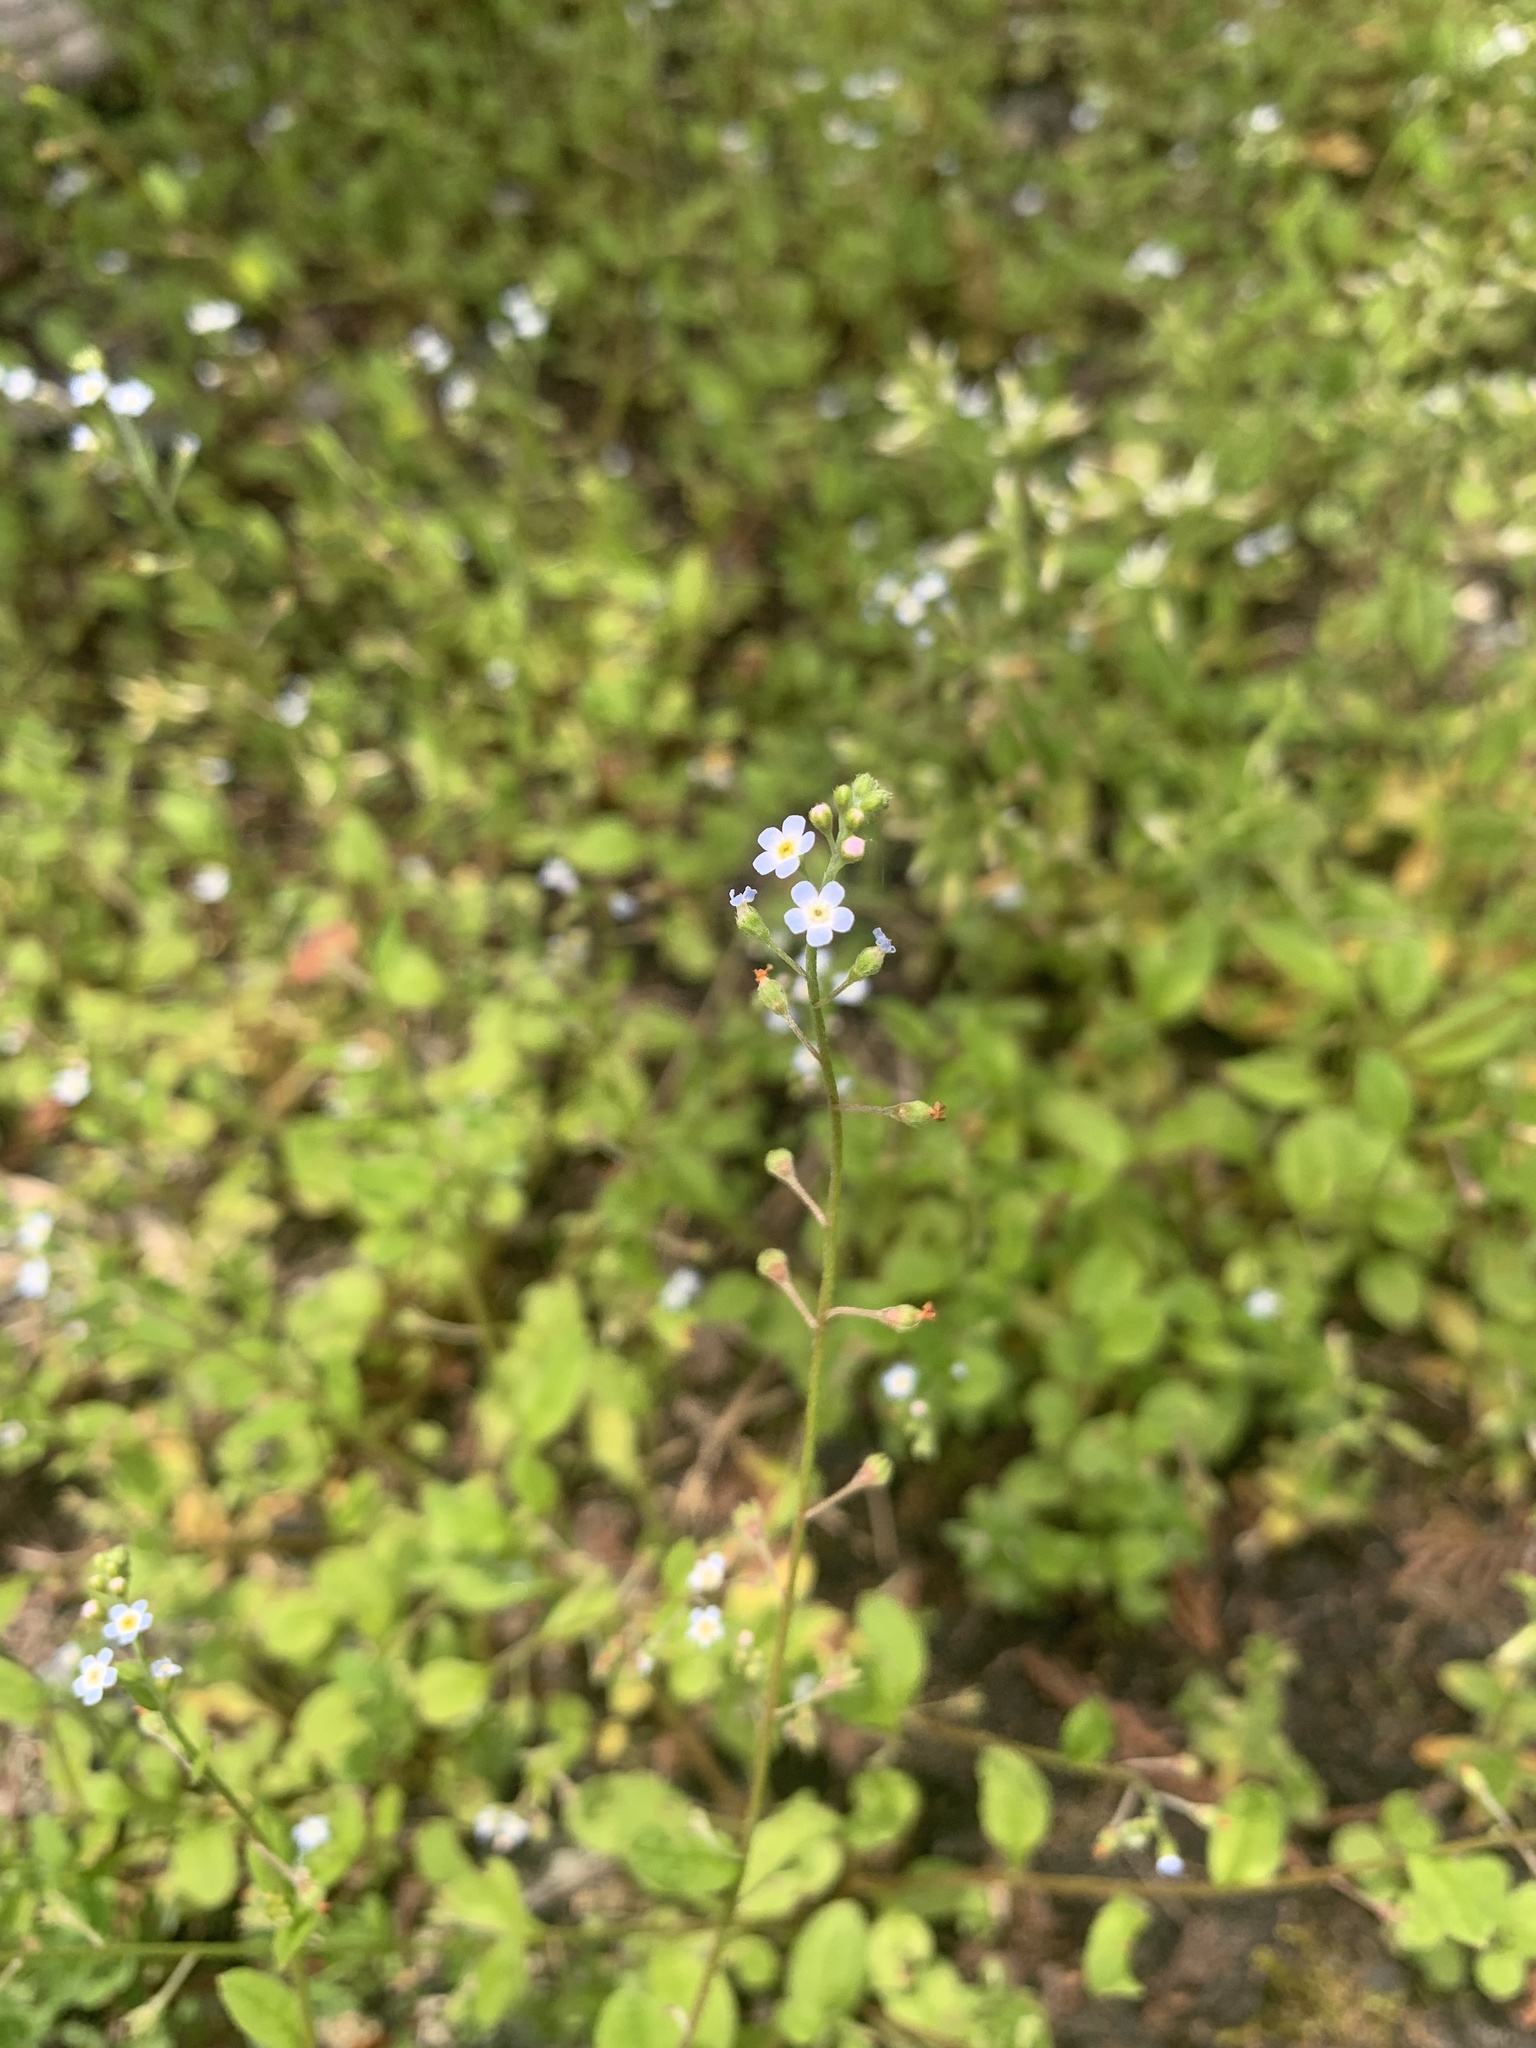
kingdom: Plantae
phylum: Tracheophyta
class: Magnoliopsida
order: Boraginales
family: Boraginaceae
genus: Trigonotis
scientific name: Trigonotis peduncularis
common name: Cucumber herb
